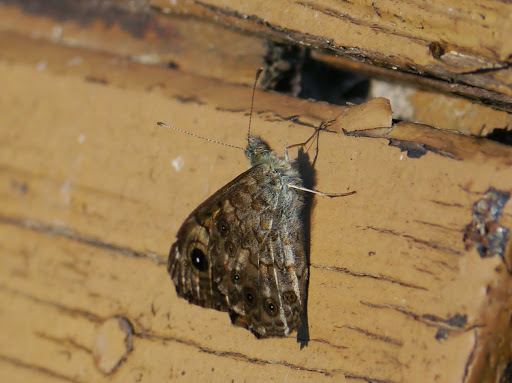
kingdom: Animalia
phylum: Arthropoda
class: Insecta
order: Lepidoptera
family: Nymphalidae
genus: Pararge
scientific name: Pararge Lasiommata megera
